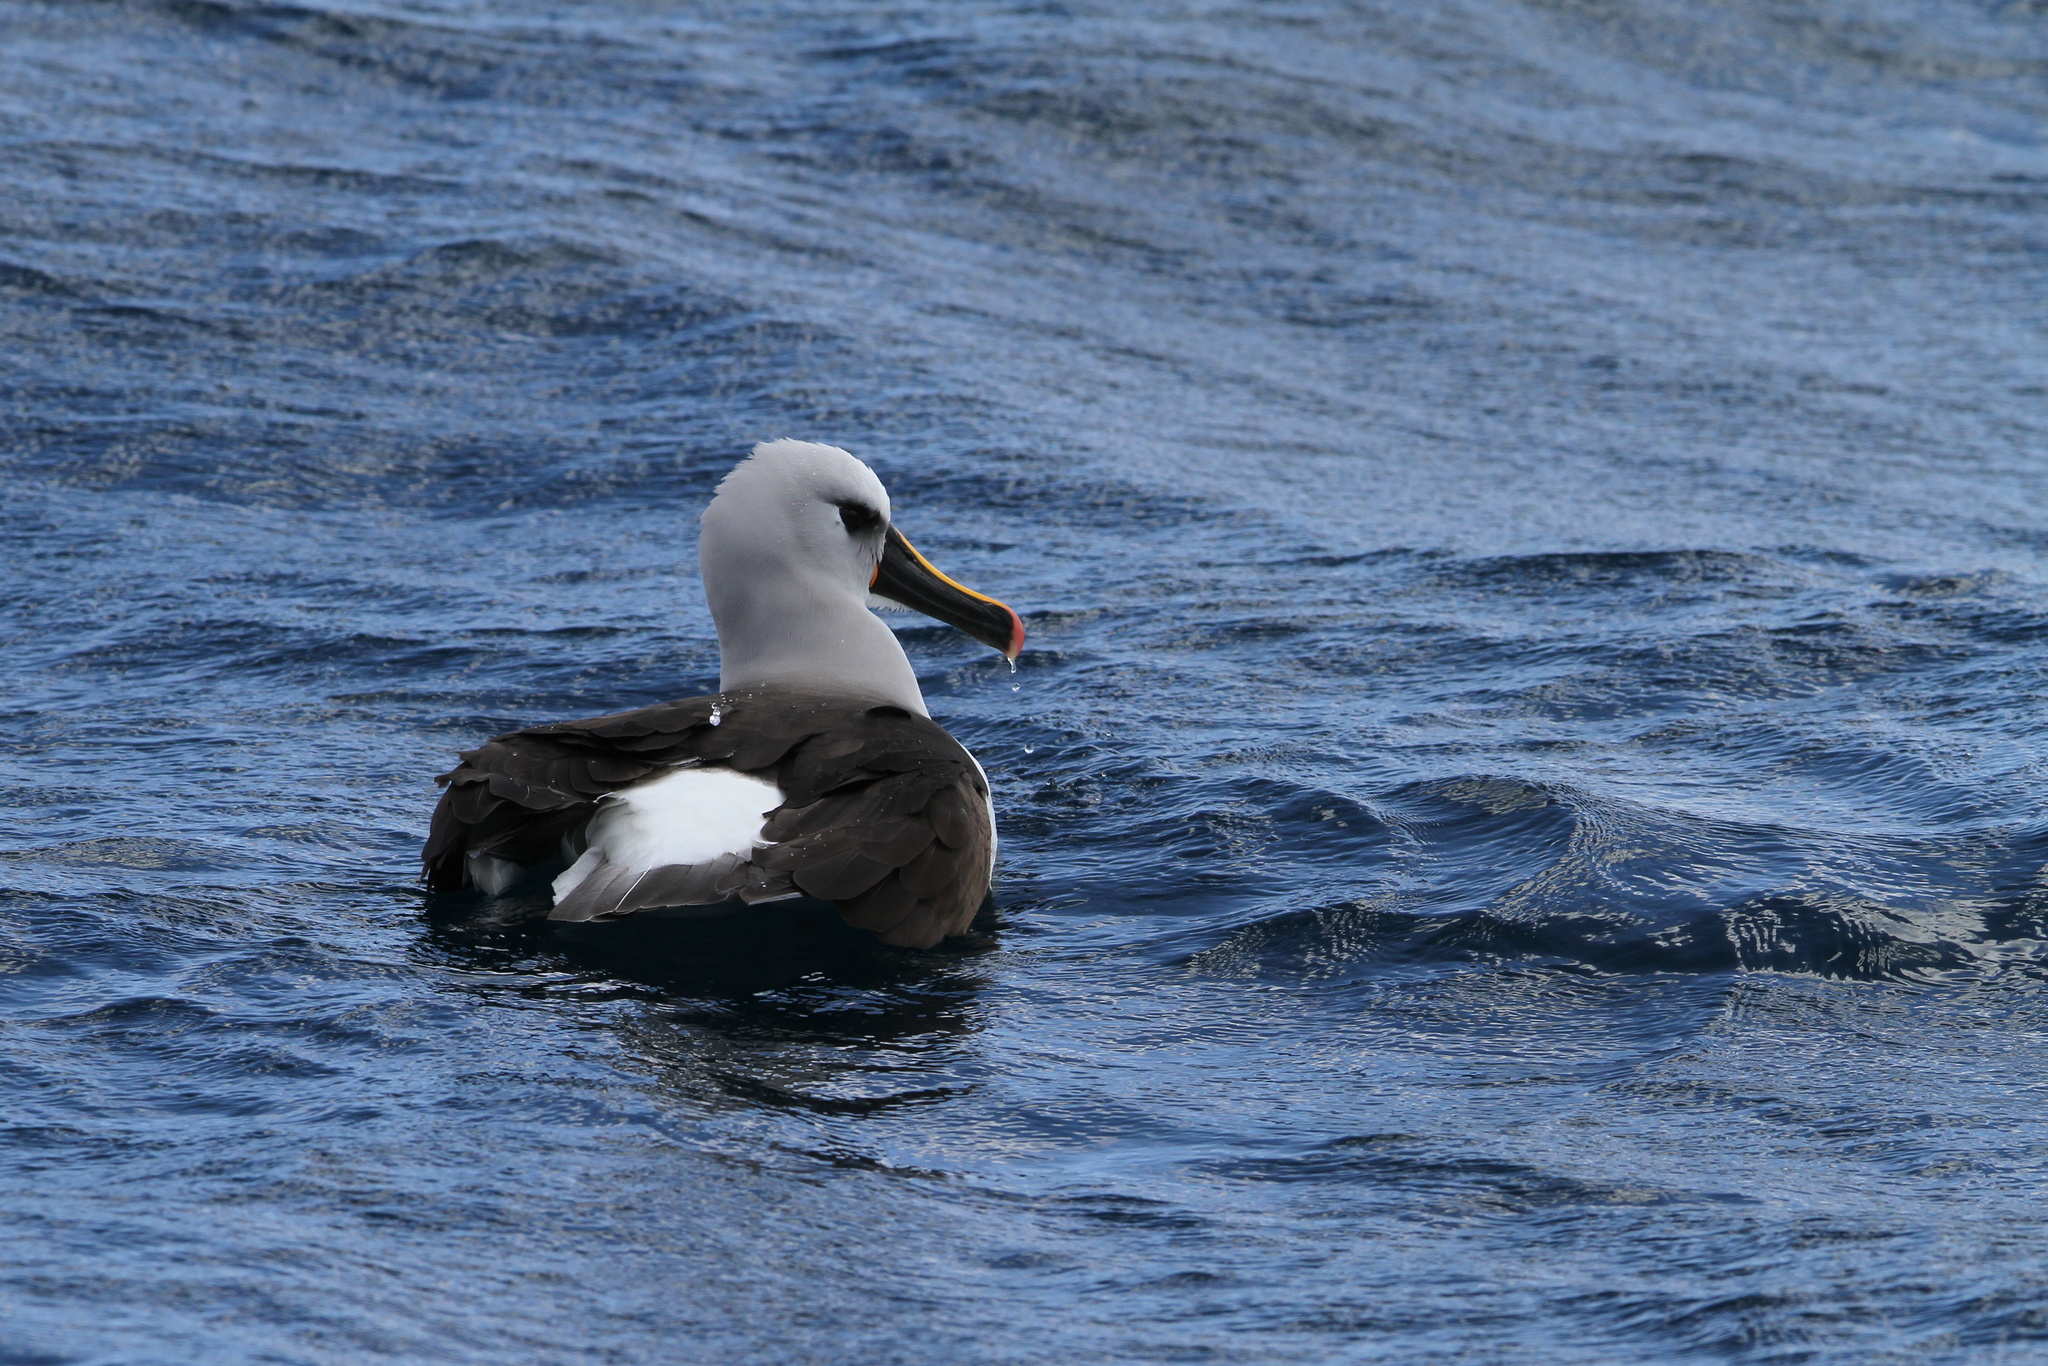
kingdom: Animalia
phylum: Chordata
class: Aves
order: Procellariiformes
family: Diomedeidae
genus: Thalassarche
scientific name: Thalassarche chlororhynchos
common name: Atlantic yellow-nosed albatross
